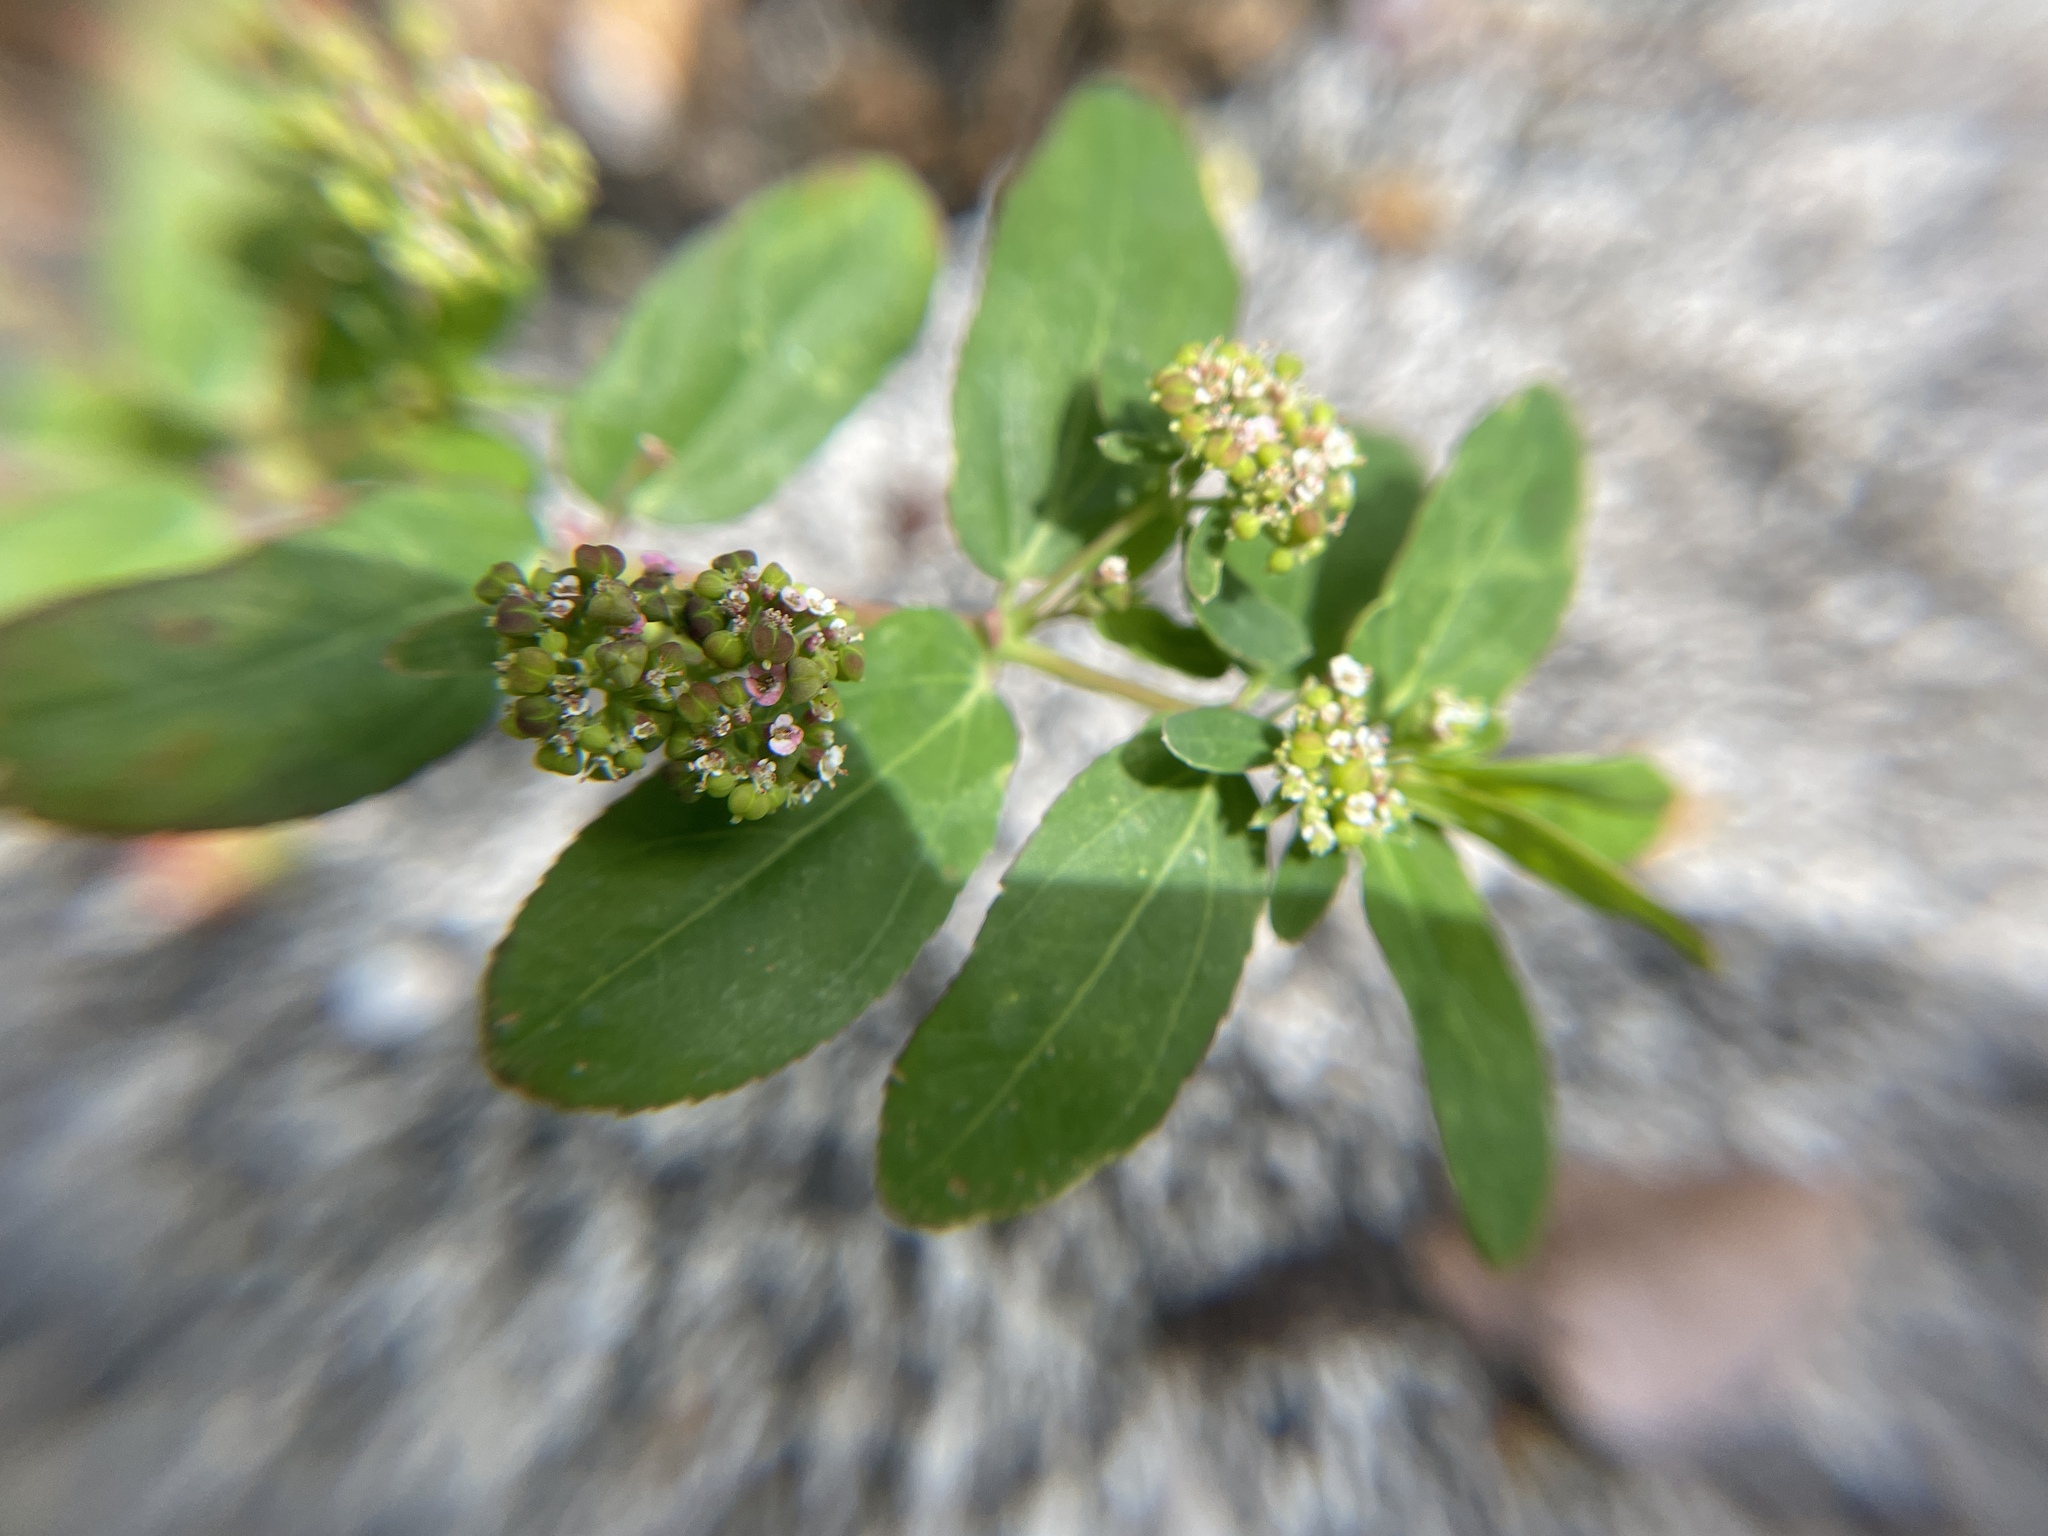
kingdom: Plantae
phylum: Tracheophyta
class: Magnoliopsida
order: Malpighiales
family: Euphorbiaceae
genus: Euphorbia
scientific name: Euphorbia hypericifolia
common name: Graceful sandmat
